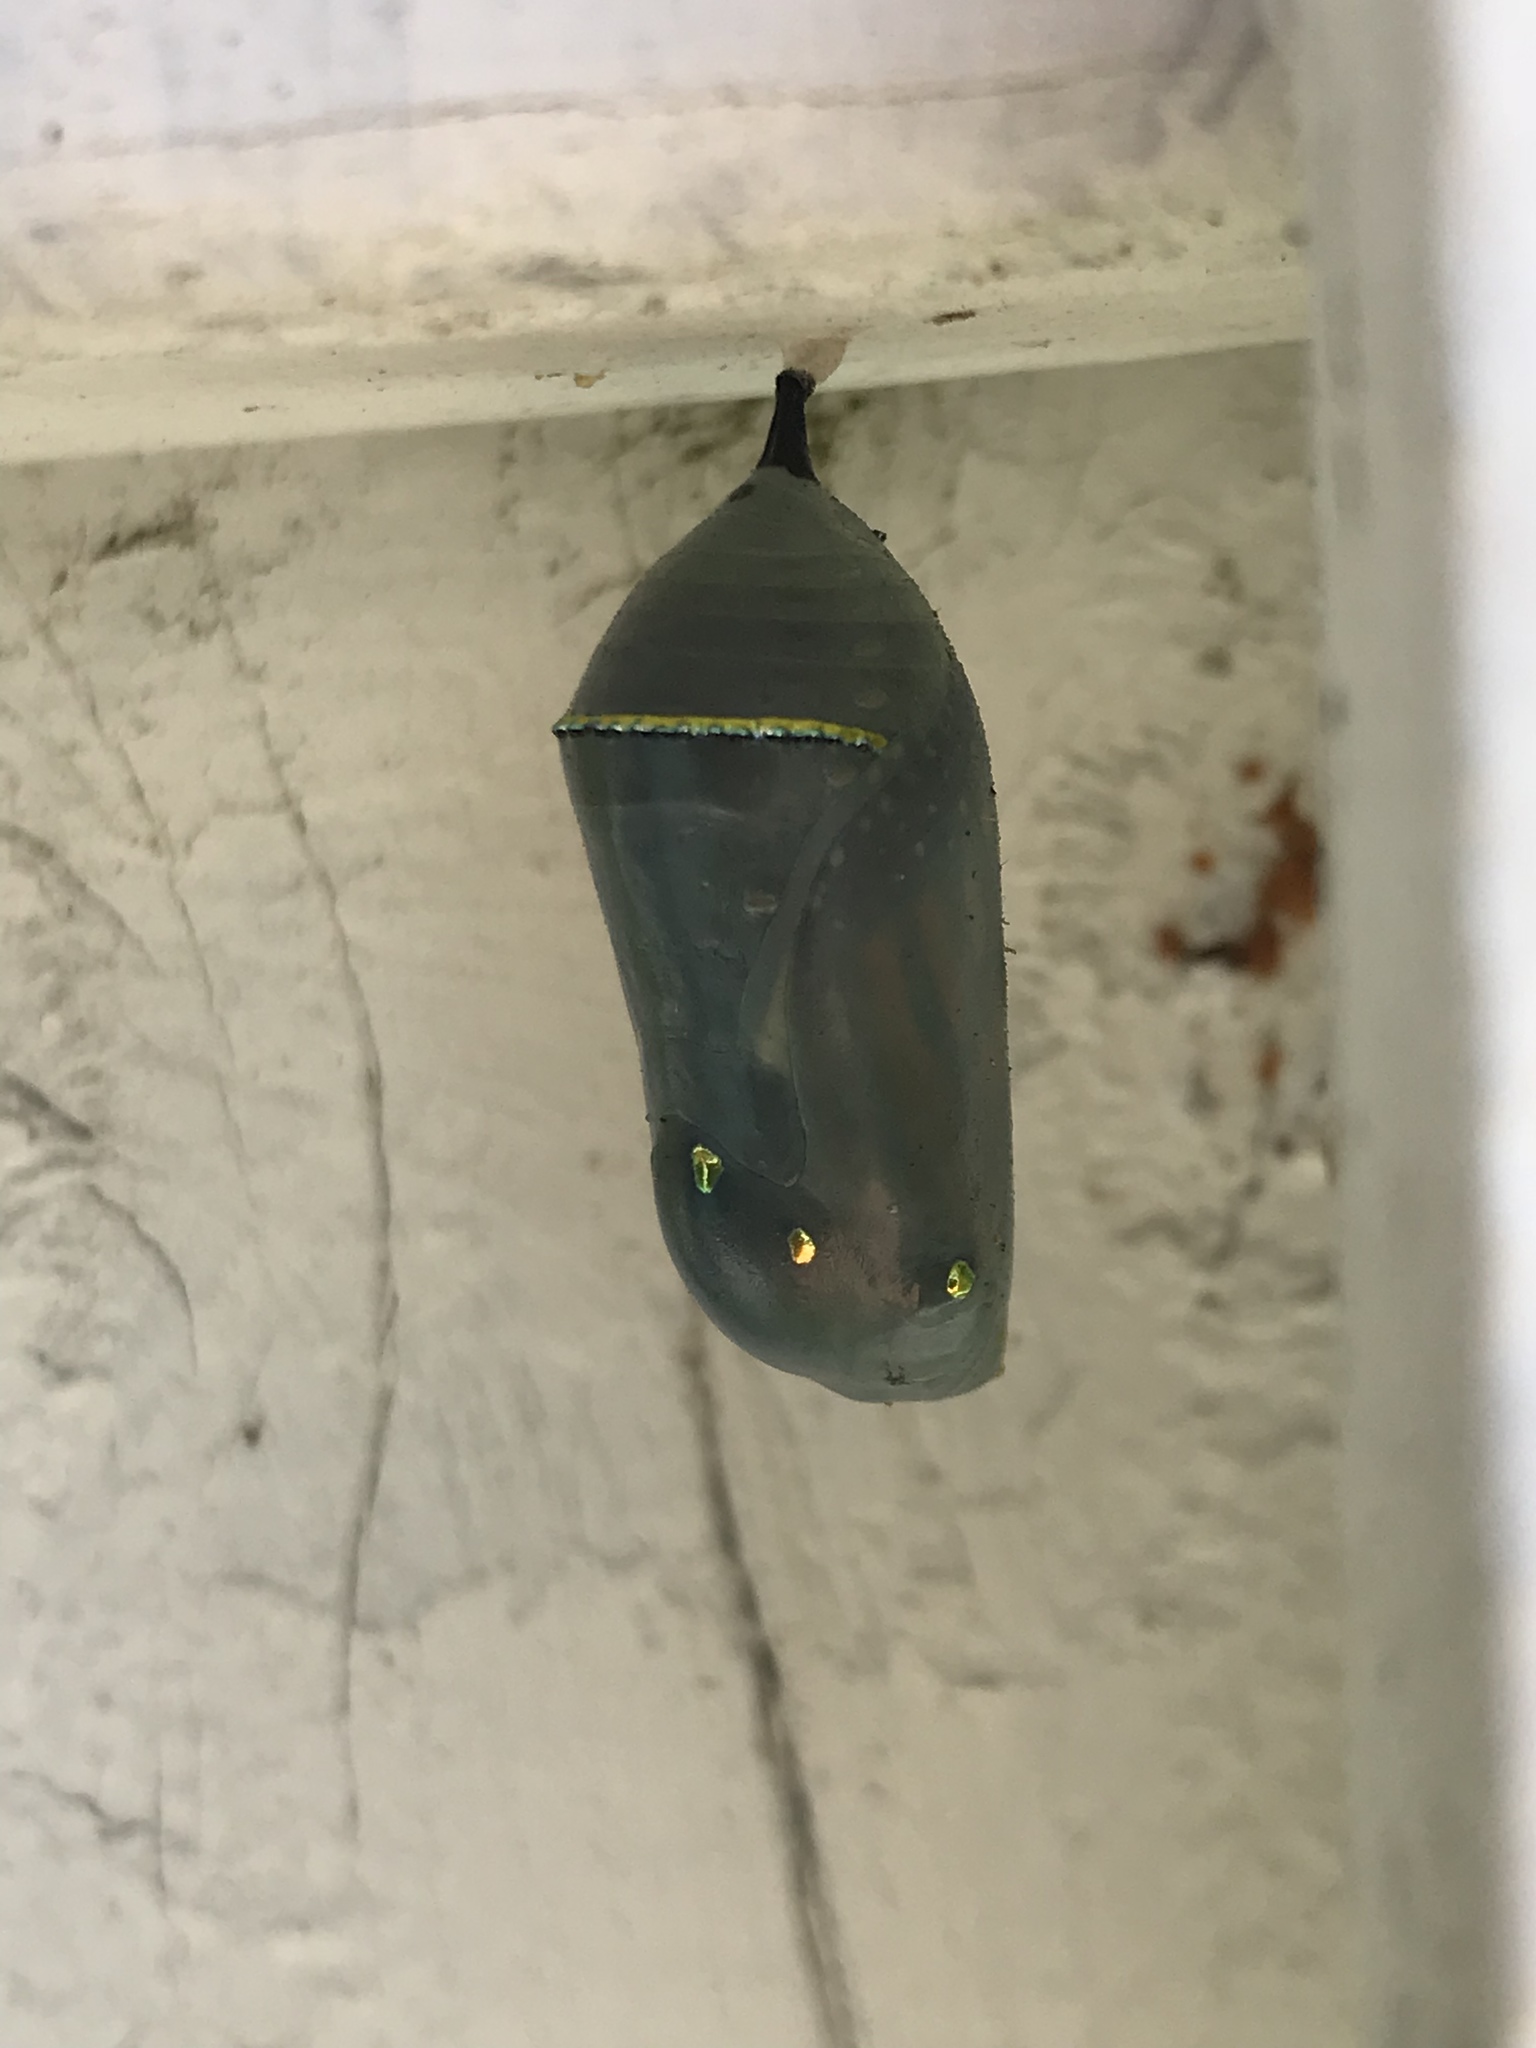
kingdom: Animalia
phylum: Arthropoda
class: Insecta
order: Lepidoptera
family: Nymphalidae
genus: Danaus
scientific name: Danaus plexippus
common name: Monarch
